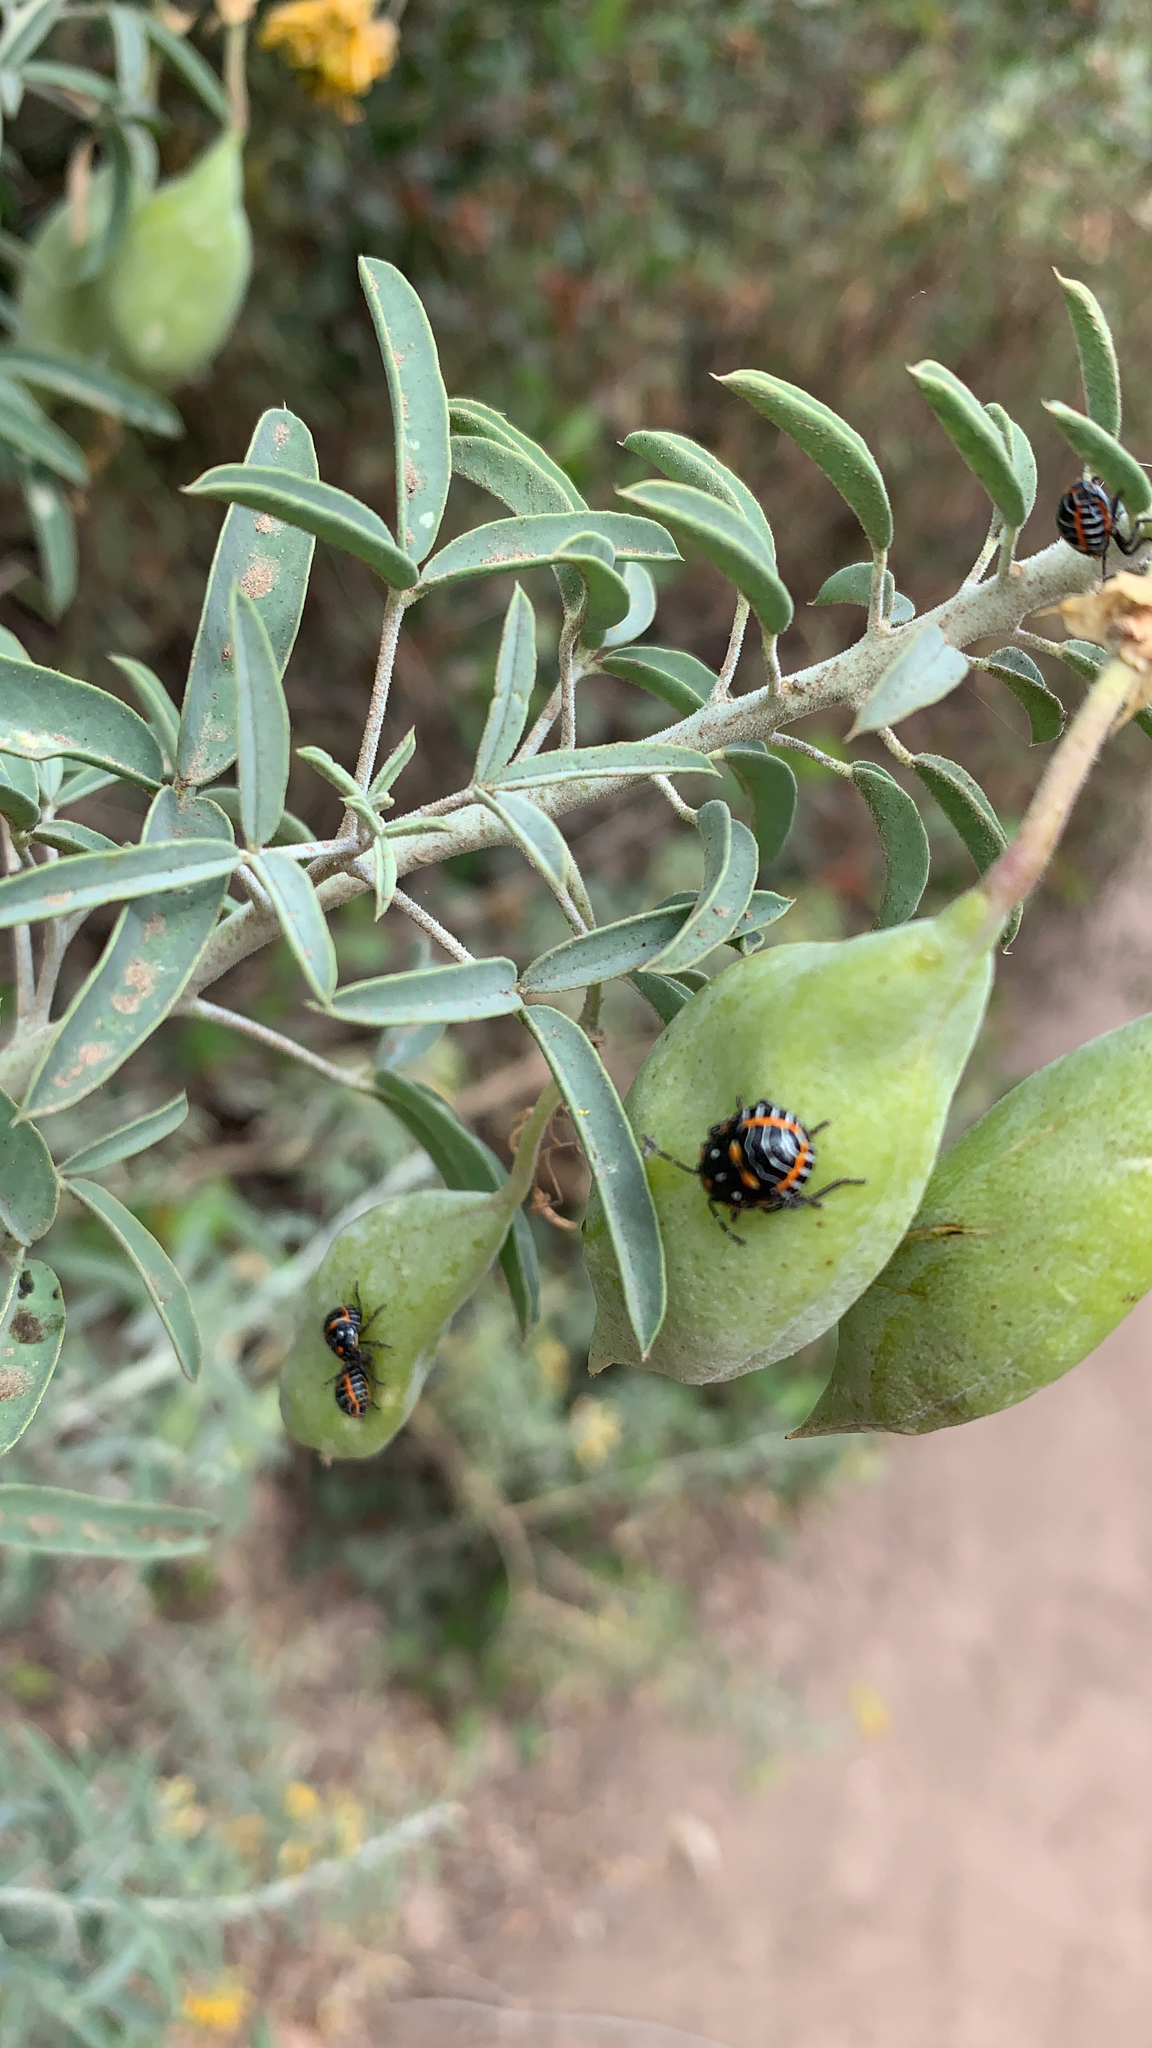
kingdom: Animalia
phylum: Arthropoda
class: Insecta
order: Hemiptera
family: Pentatomidae
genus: Murgantia
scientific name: Murgantia histrionica
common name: Harlequin bug
